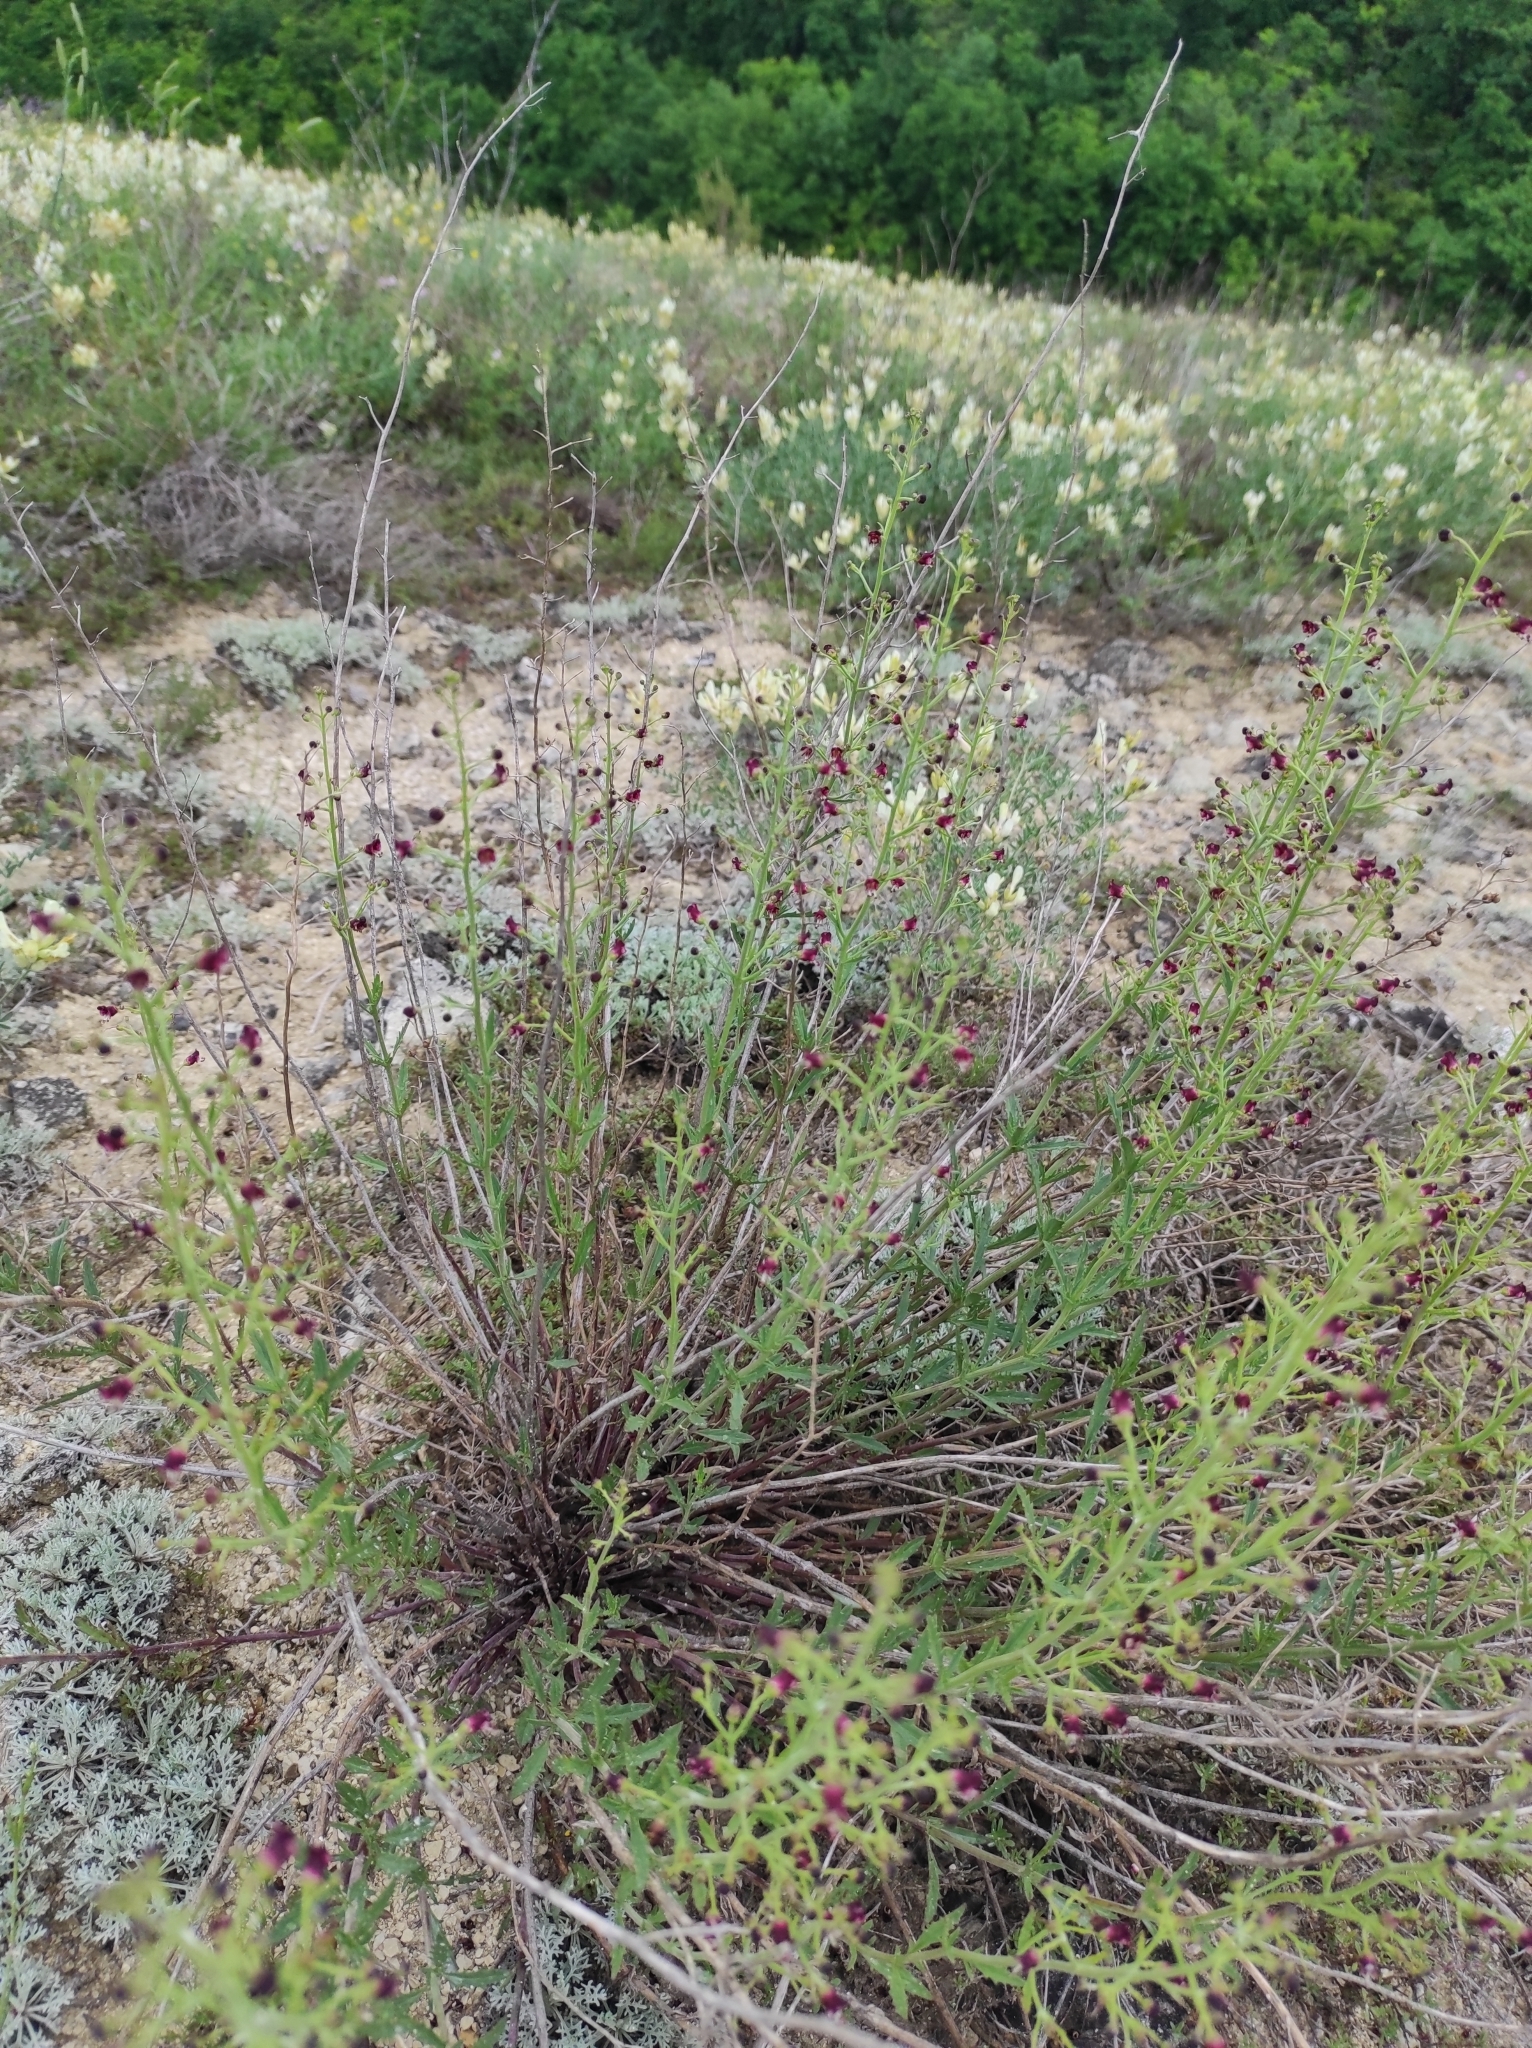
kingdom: Plantae
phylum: Tracheophyta
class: Magnoliopsida
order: Lamiales
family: Scrophulariaceae
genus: Scrophularia
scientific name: Scrophularia cretacea
